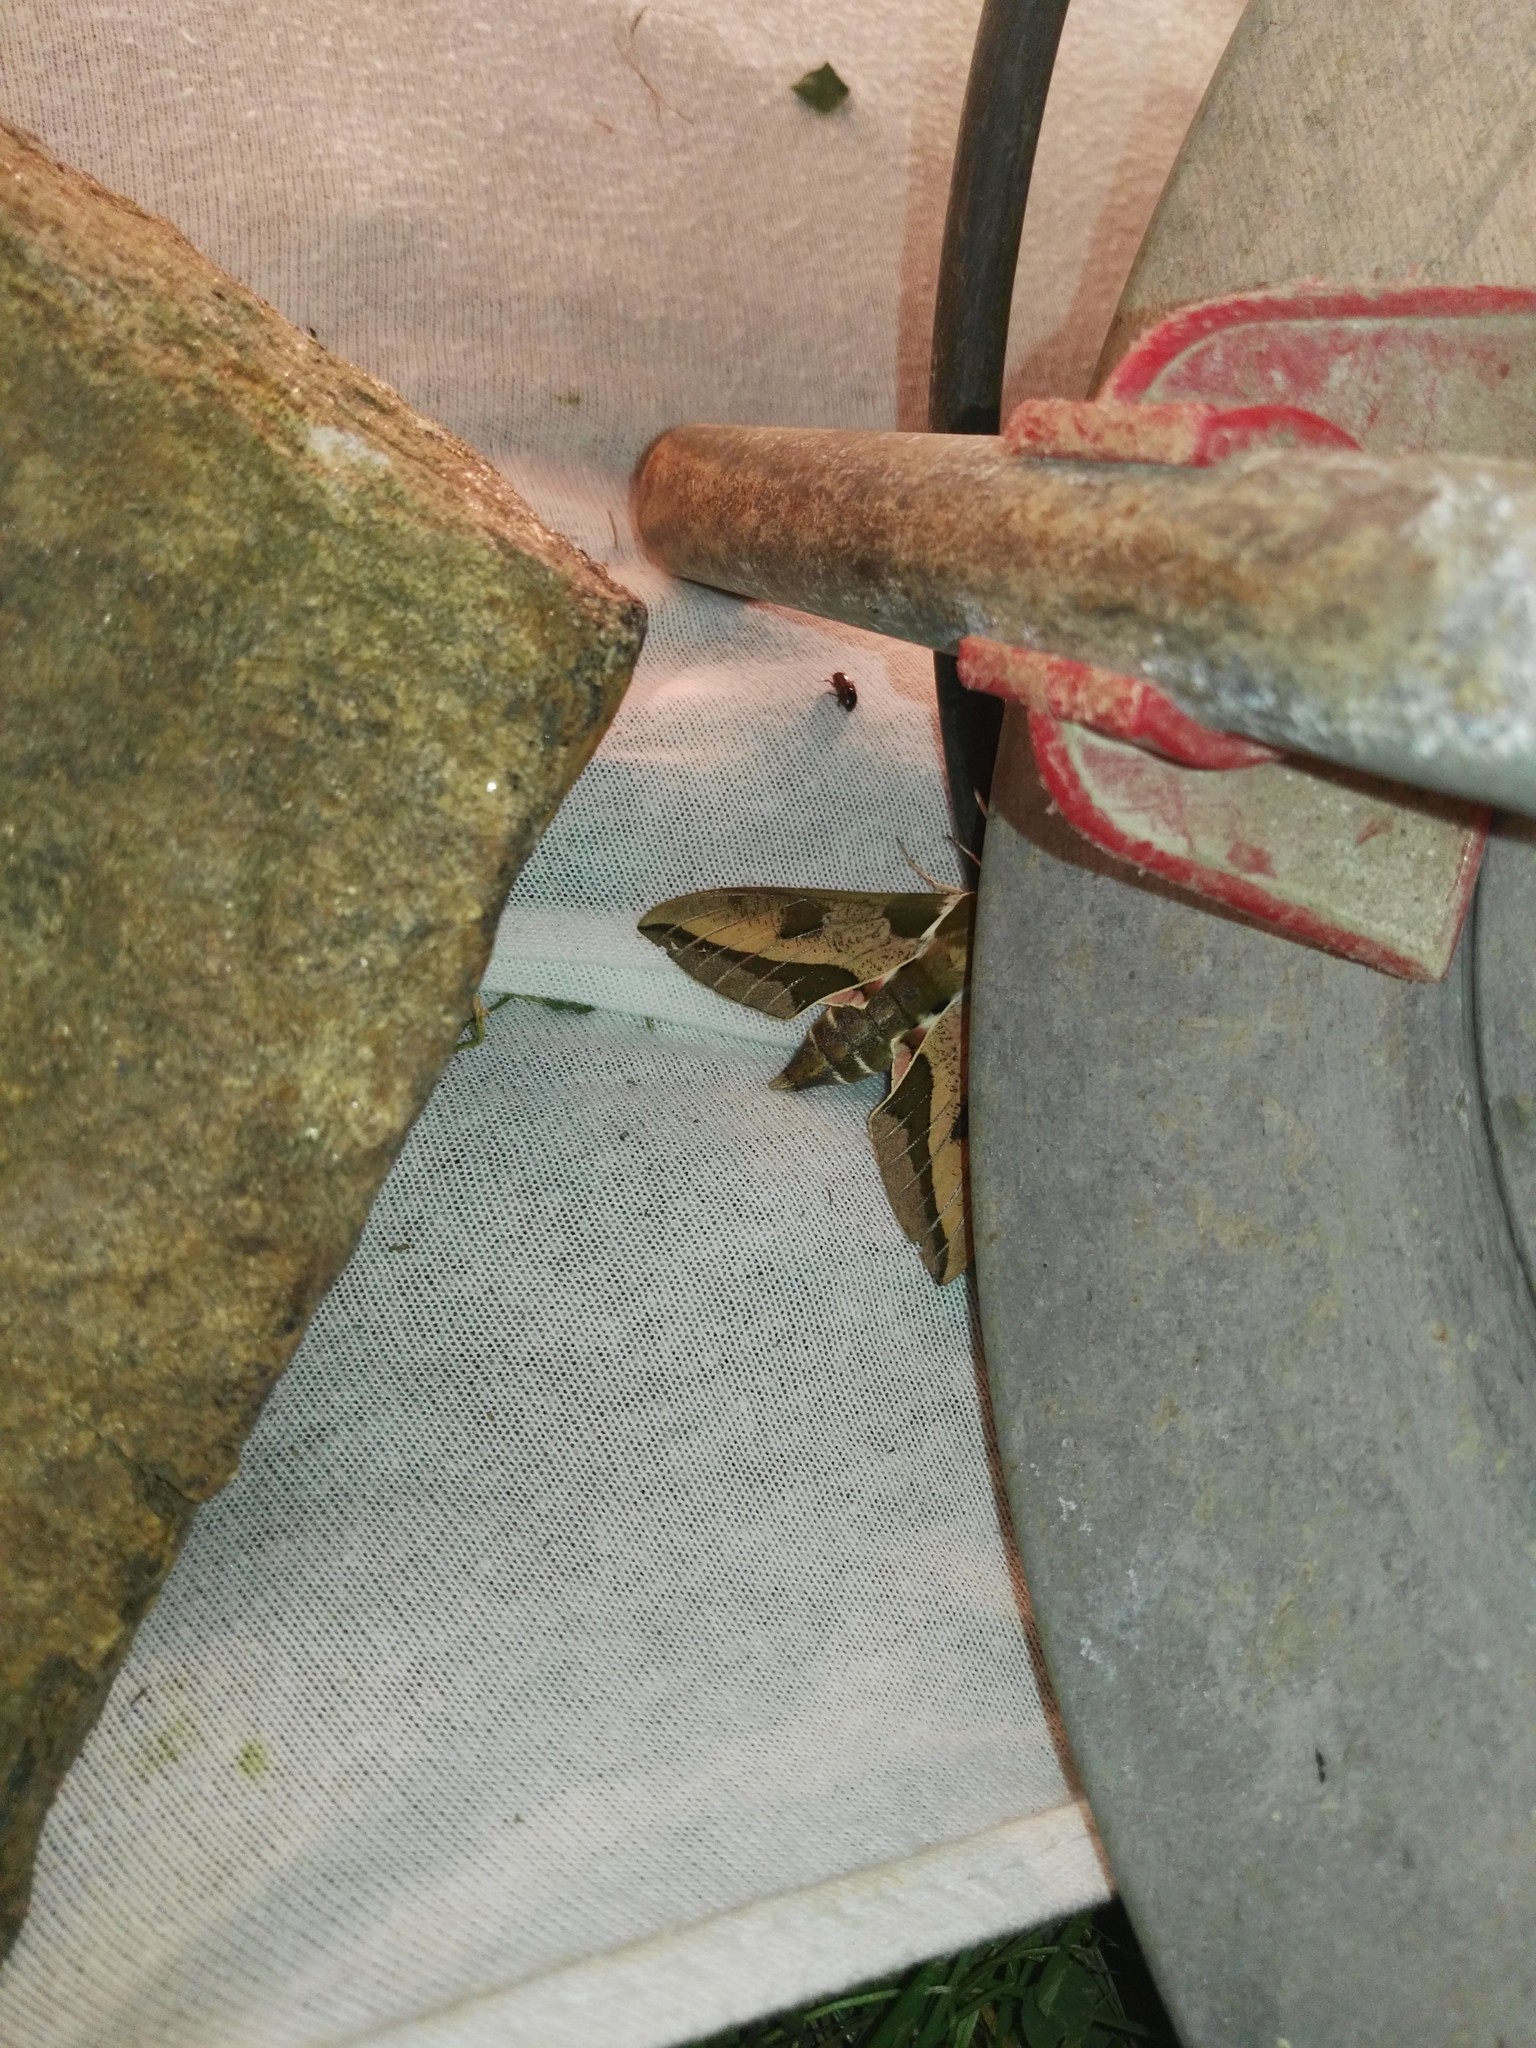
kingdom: Animalia
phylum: Arthropoda
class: Insecta
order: Lepidoptera
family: Sphingidae
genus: Hyles
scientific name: Hyles euphorbiae
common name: Spurge hawk-moth
